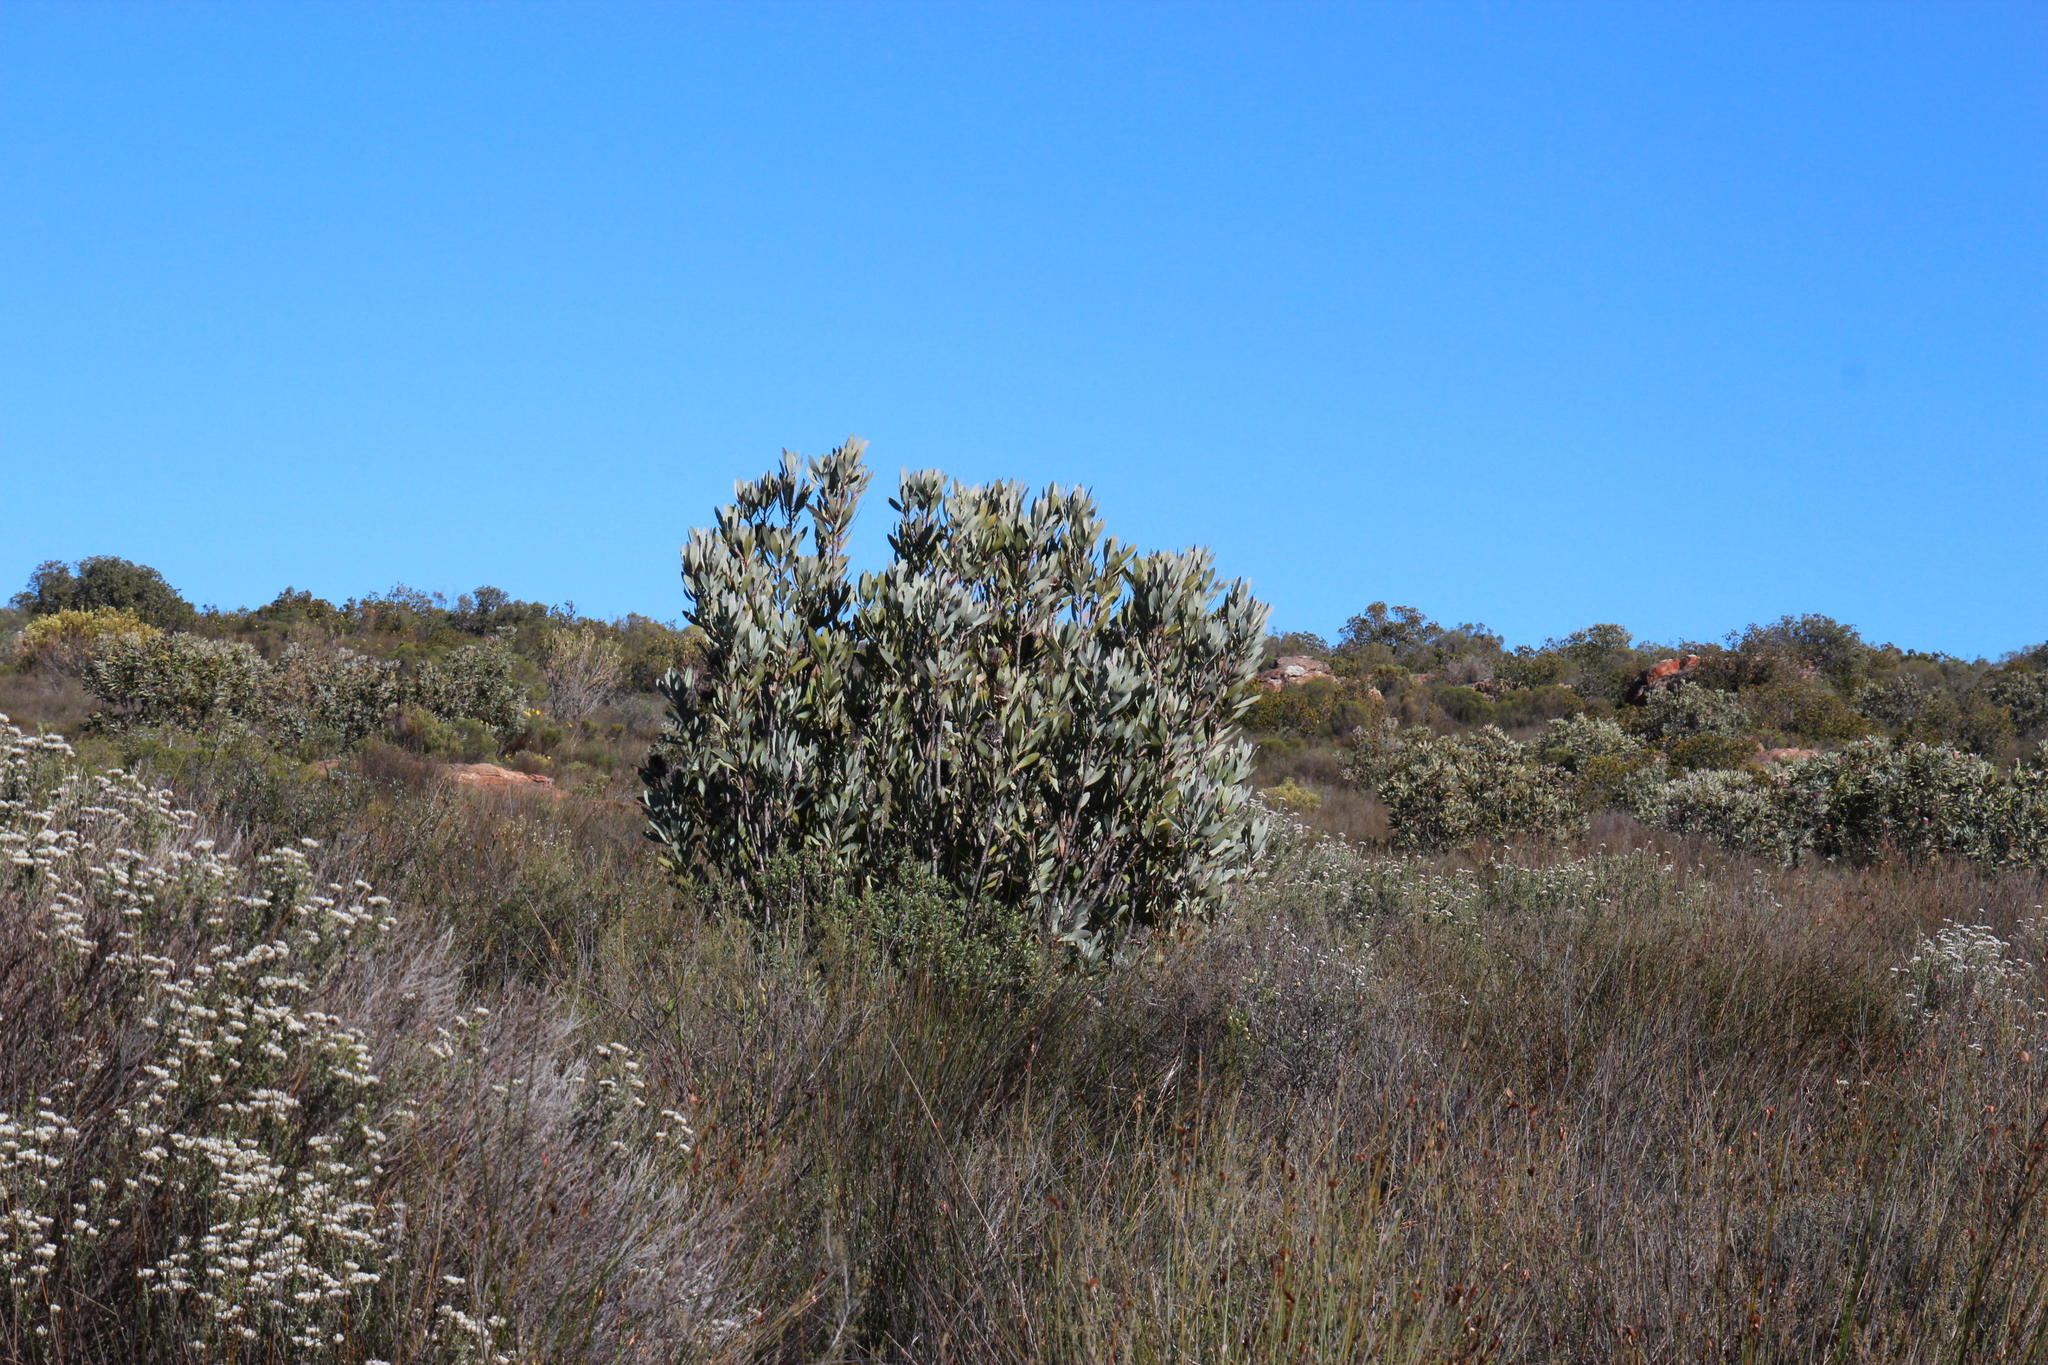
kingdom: Plantae
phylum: Tracheophyta
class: Magnoliopsida
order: Proteales
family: Proteaceae
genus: Protea
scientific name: Protea laurifolia
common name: Grey-leaf sugarbsh
